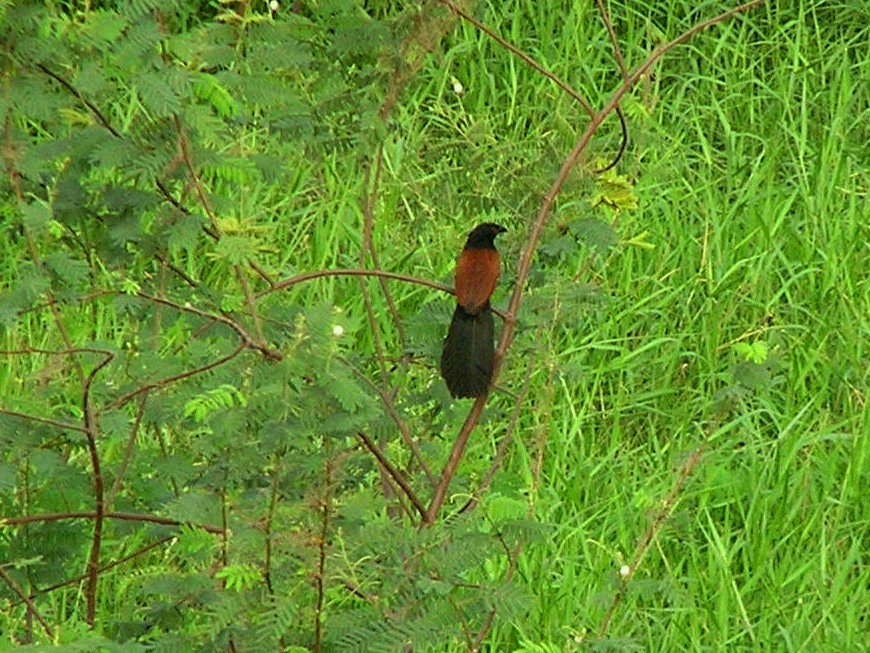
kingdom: Animalia
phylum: Chordata
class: Aves
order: Cuculiformes
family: Cuculidae
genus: Centropus
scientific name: Centropus sinensis
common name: Greater coucal
